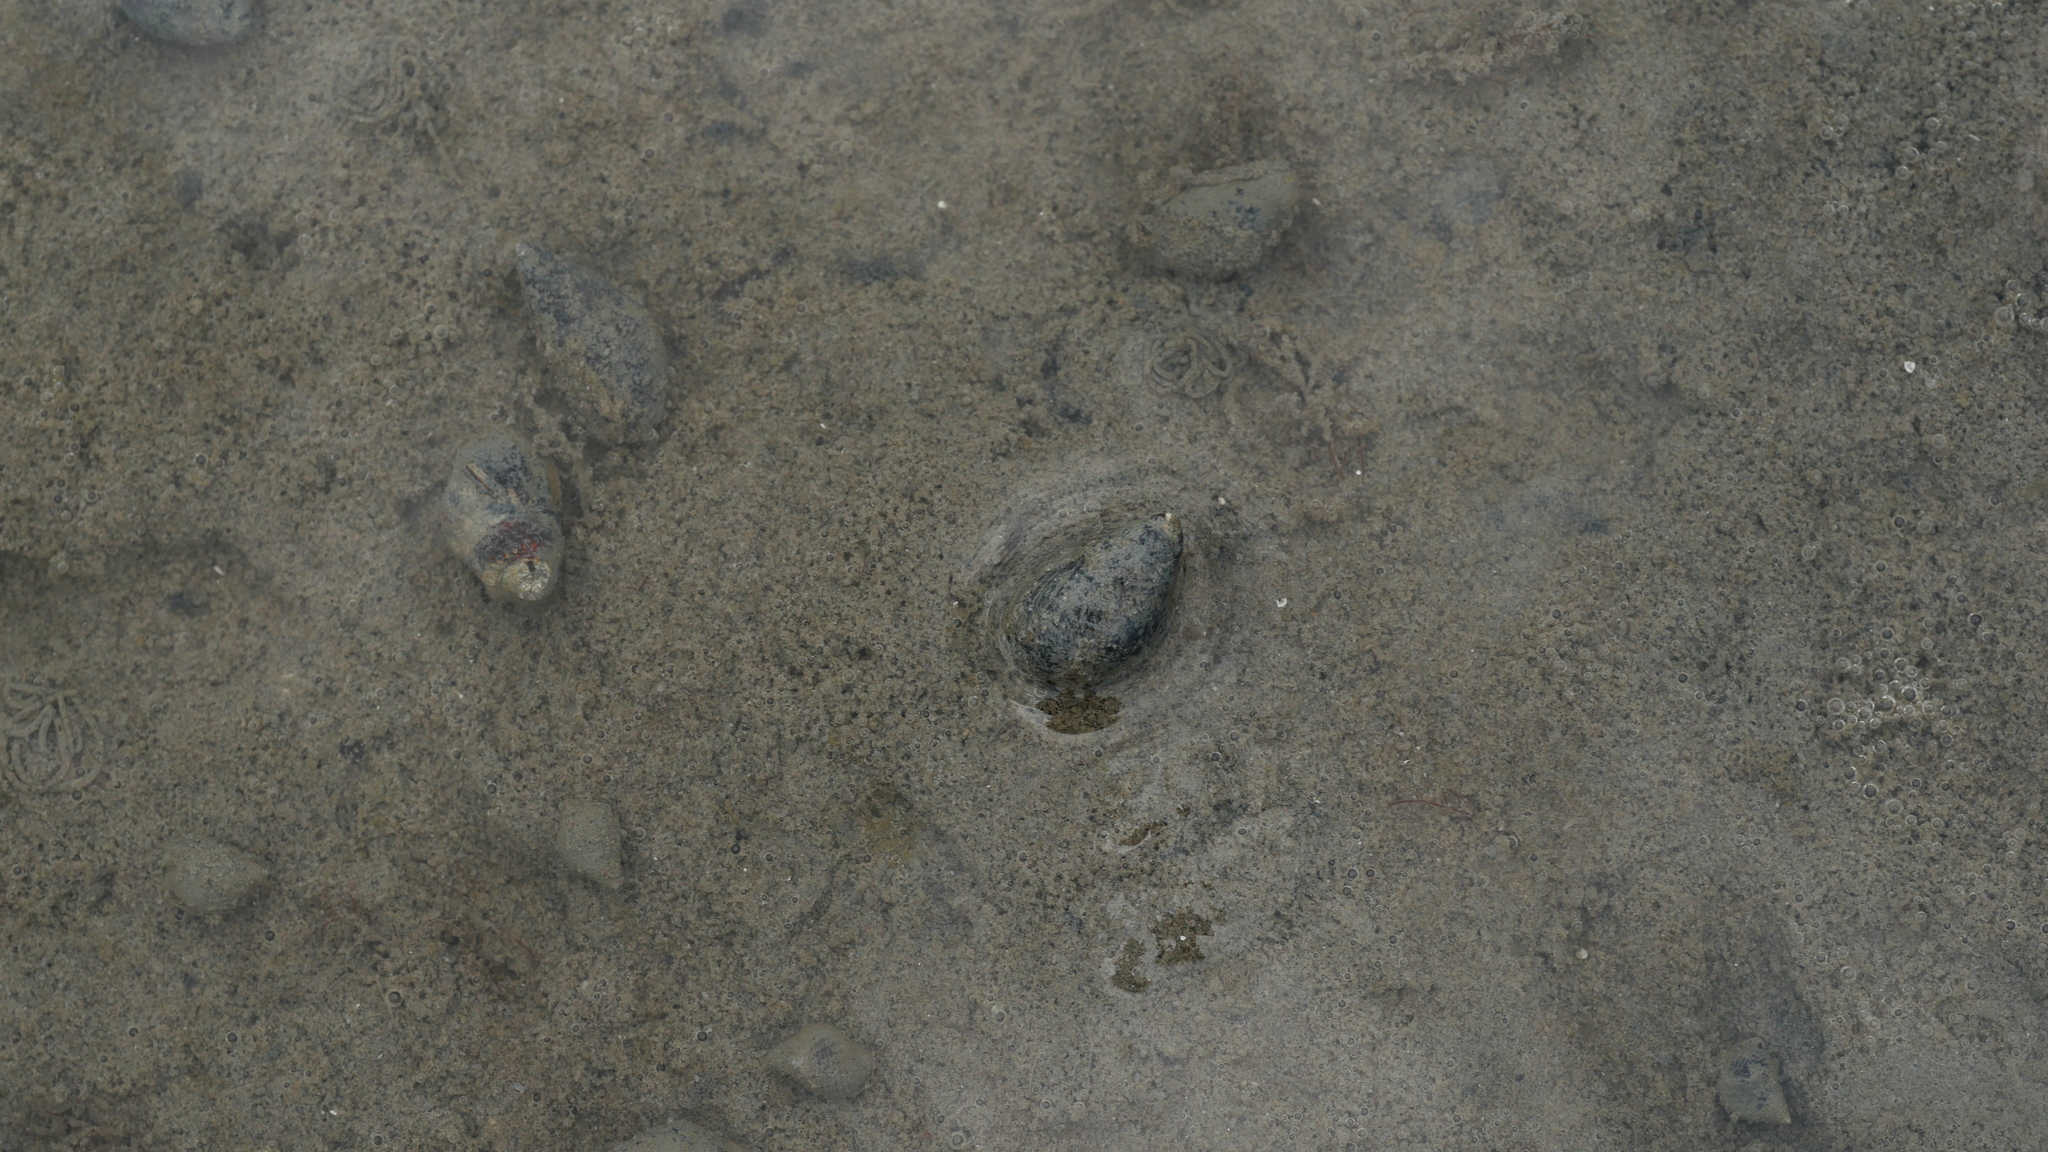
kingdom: Animalia
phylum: Mollusca
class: Gastropoda
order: Neogastropoda
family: Nassariidae
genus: Ilyanassa
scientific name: Ilyanassa obsoleta
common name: Eastern mudsnail
